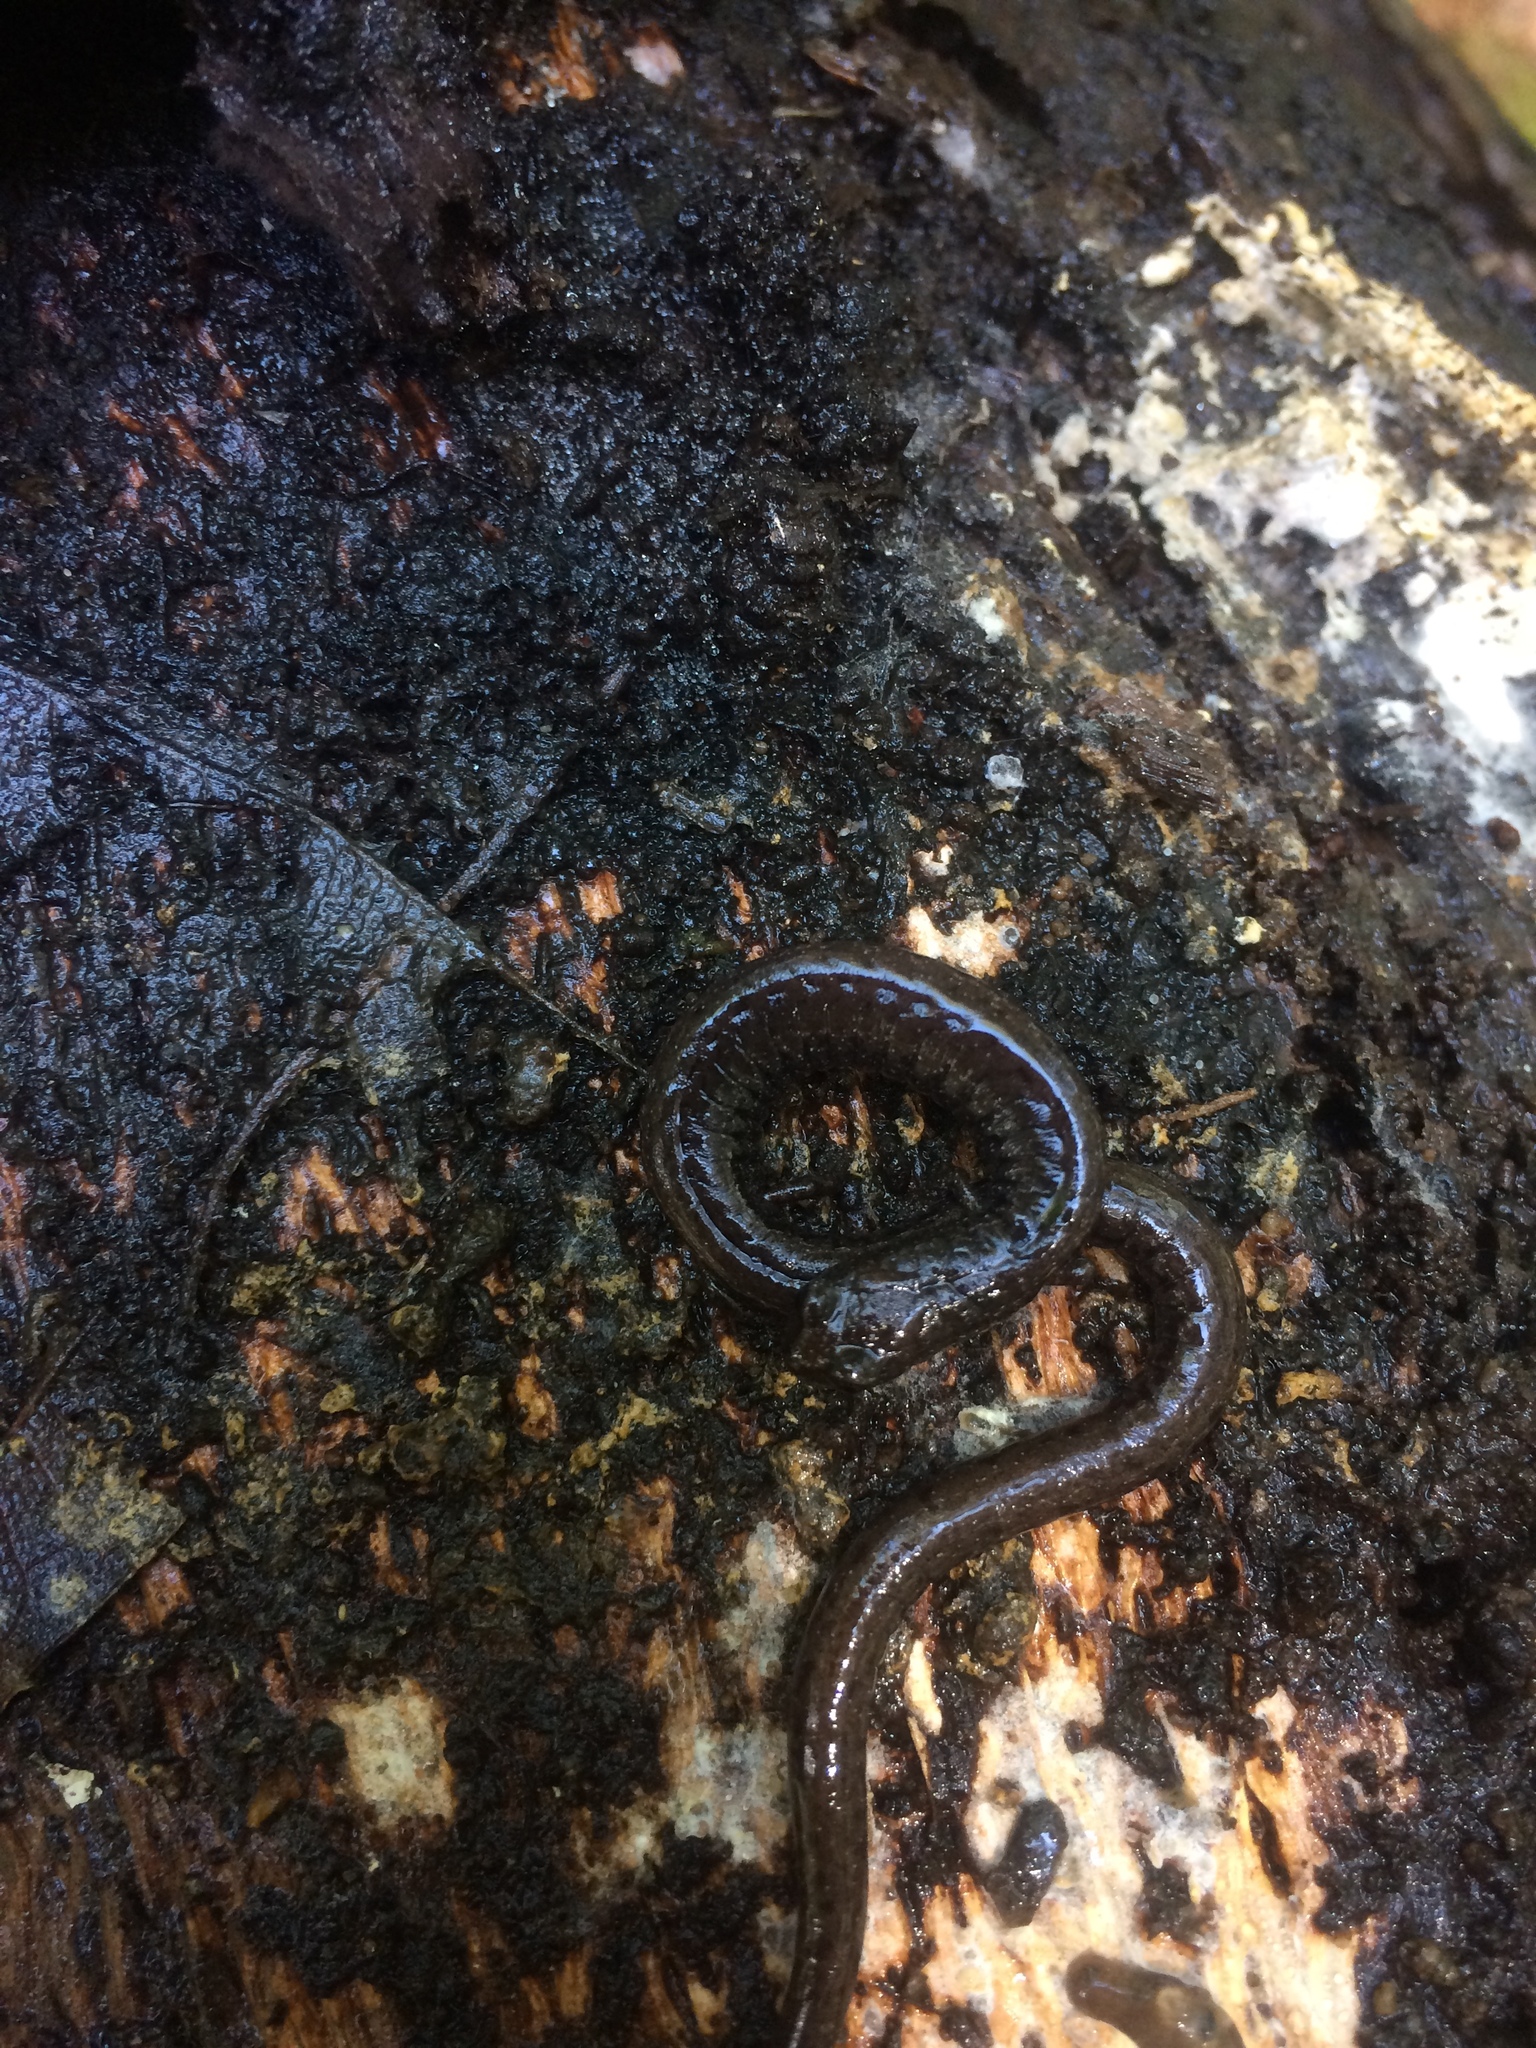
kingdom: Animalia
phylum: Chordata
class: Amphibia
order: Caudata
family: Plethodontidae
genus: Batrachoseps
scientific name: Batrachoseps attenuatus
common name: California slender salamander
